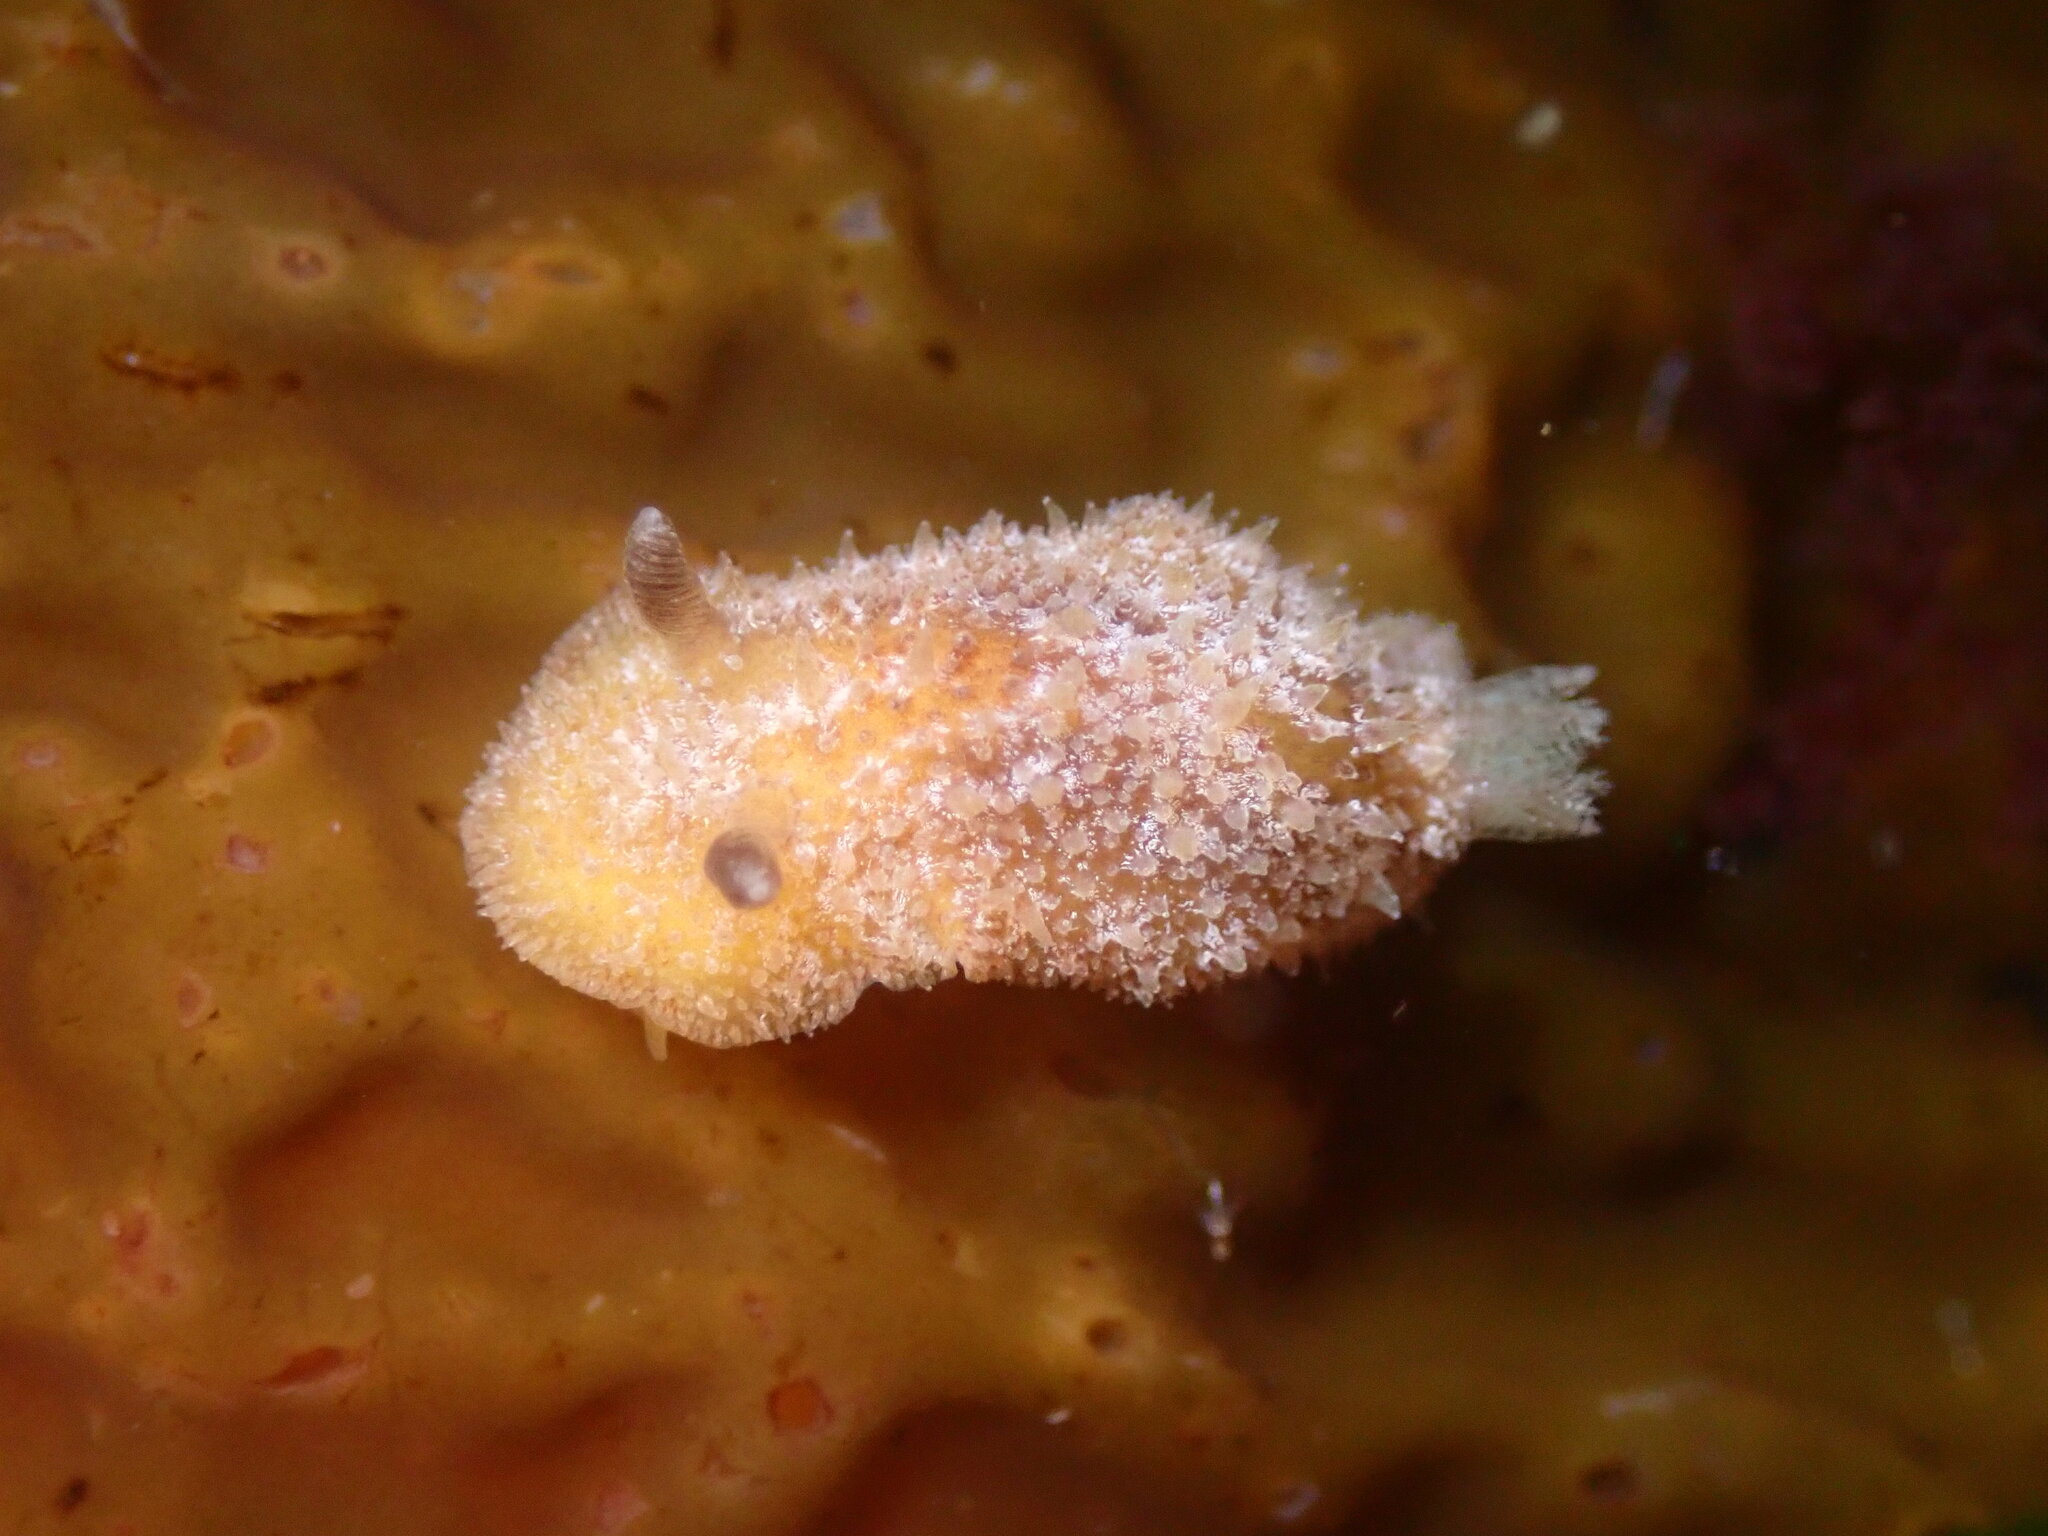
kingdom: Animalia
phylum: Mollusca
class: Gastropoda
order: Nudibranchia
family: Discodorididae
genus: Thordisa
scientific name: Thordisa bimaculata
